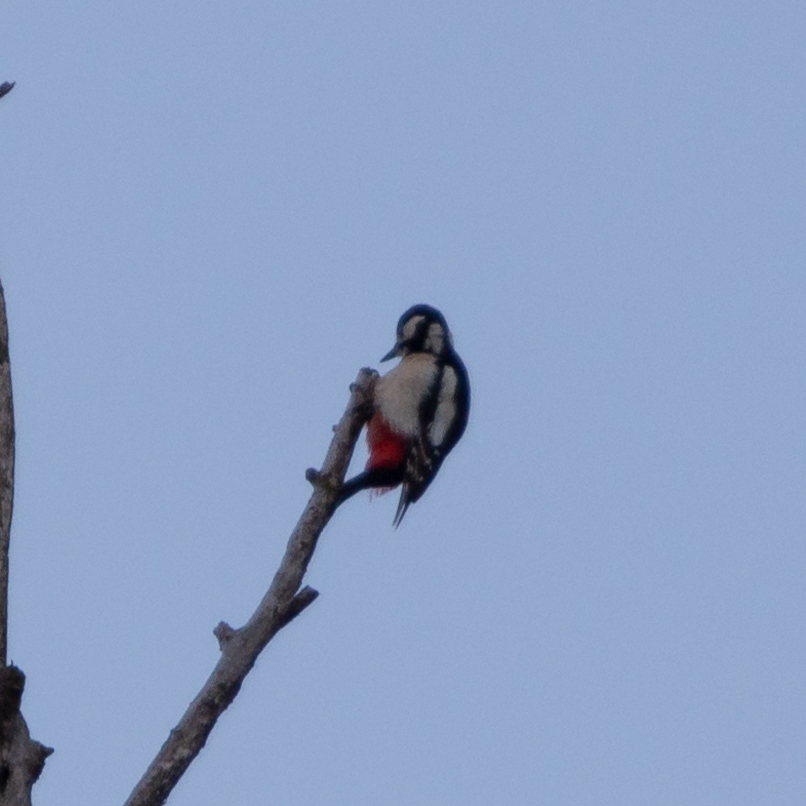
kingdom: Animalia
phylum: Chordata
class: Aves
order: Piciformes
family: Picidae
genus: Dendrocopos
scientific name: Dendrocopos major
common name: Great spotted woodpecker
